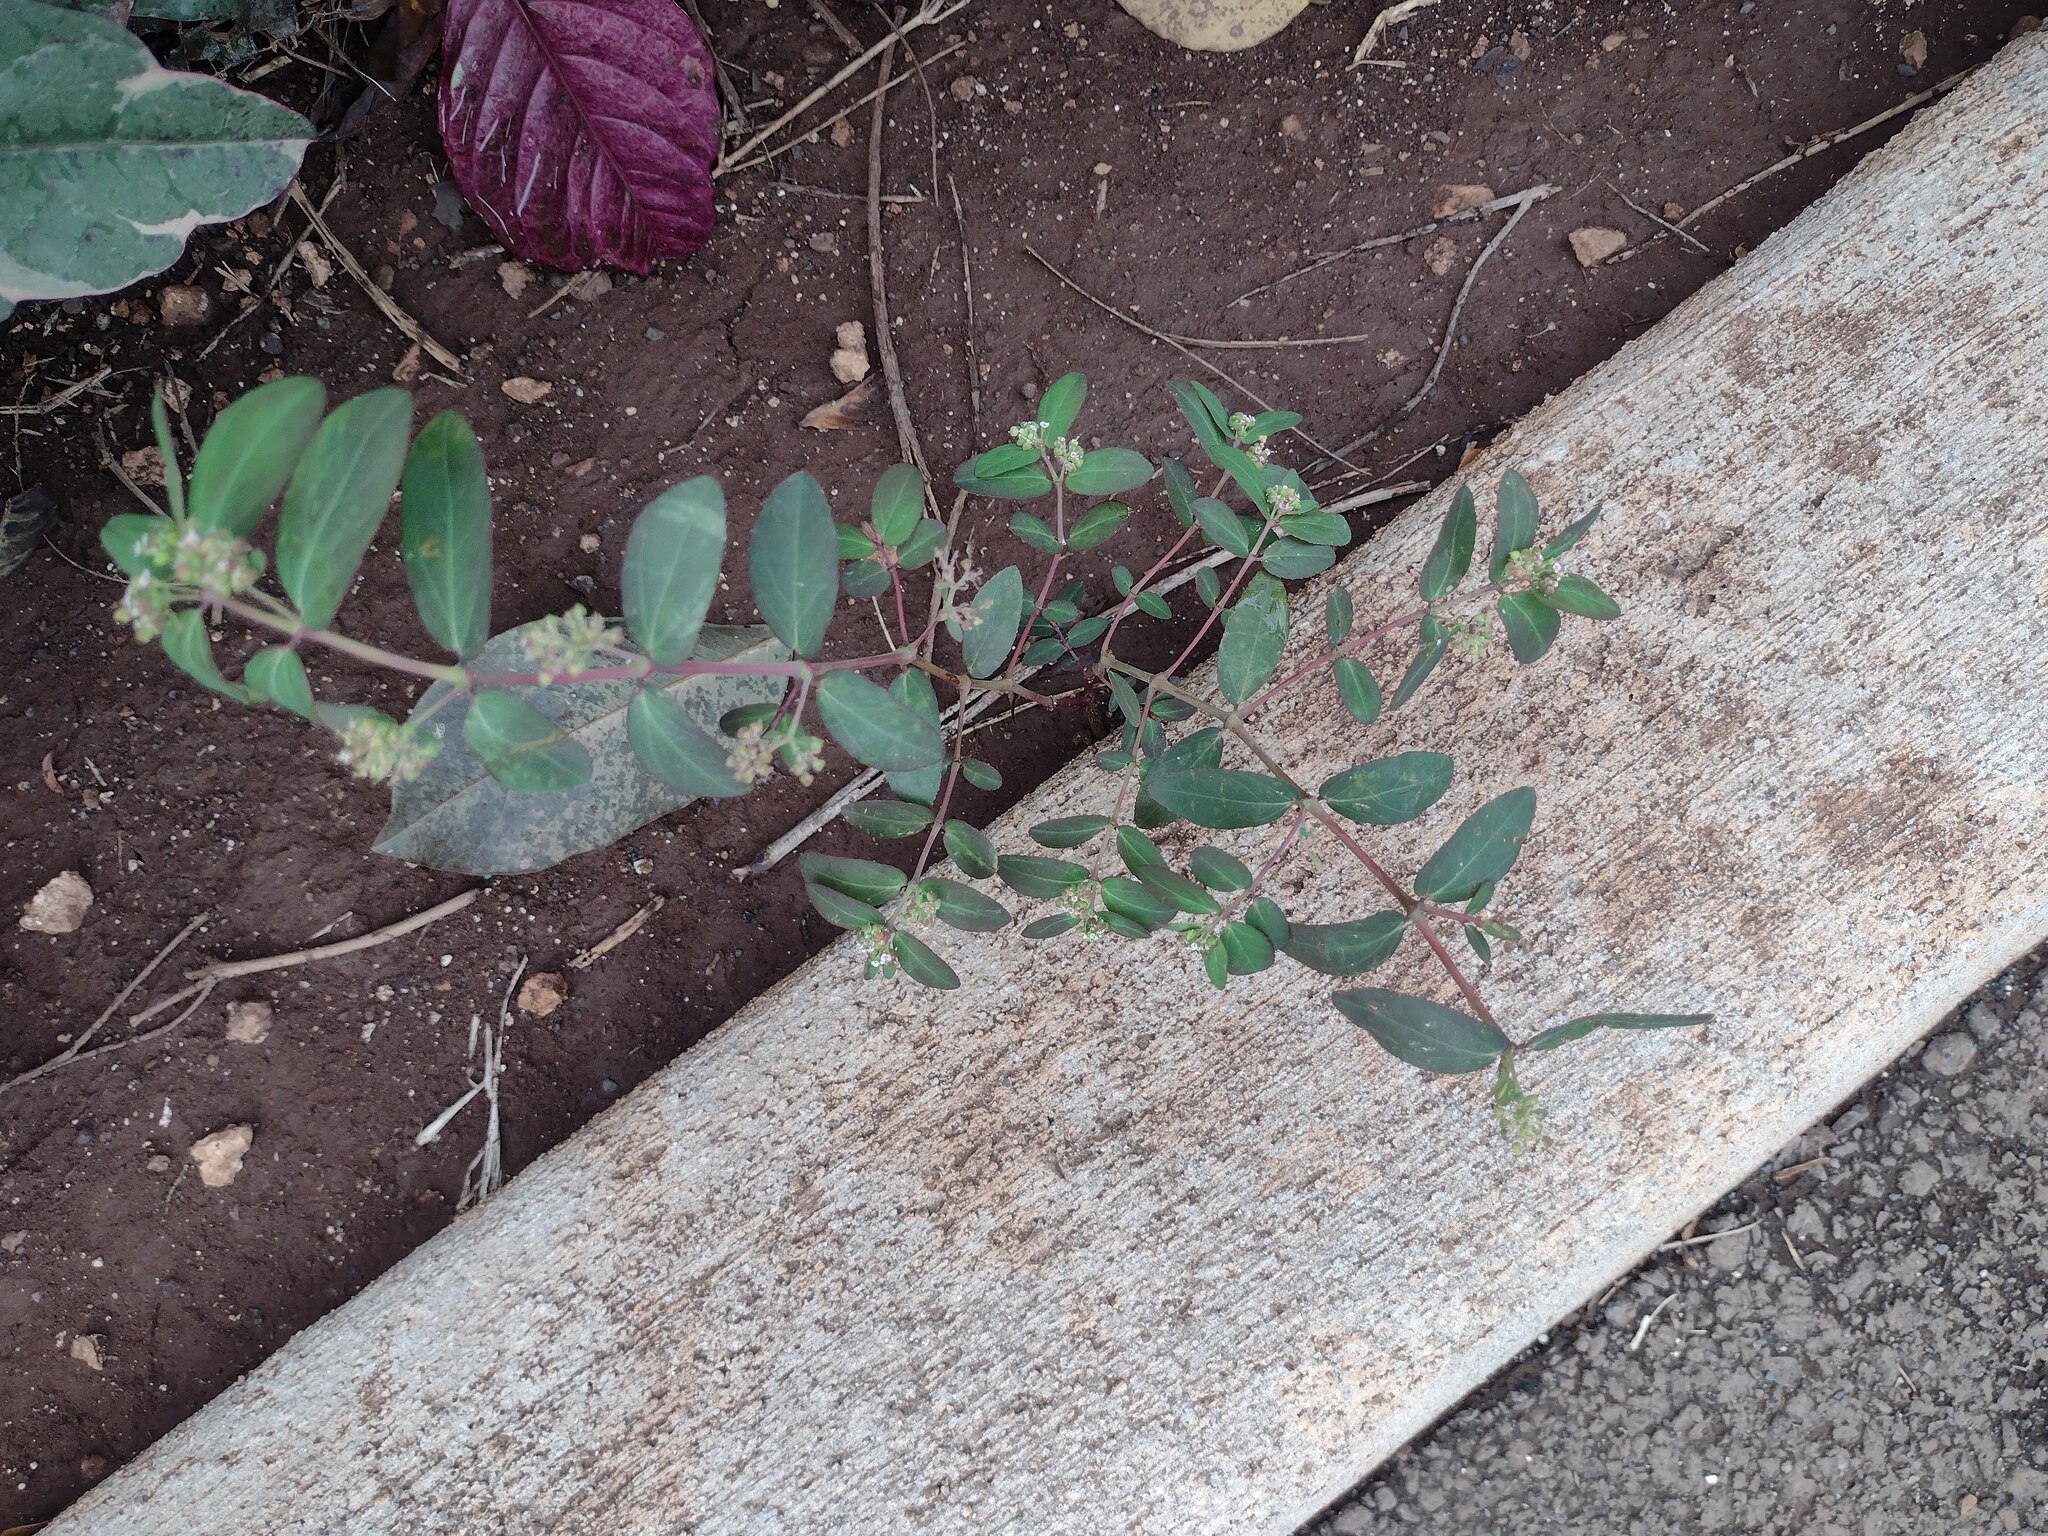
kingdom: Plantae
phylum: Tracheophyta
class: Magnoliopsida
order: Malpighiales
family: Euphorbiaceae
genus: Euphorbia
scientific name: Euphorbia hypericifolia
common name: Graceful sandmat
